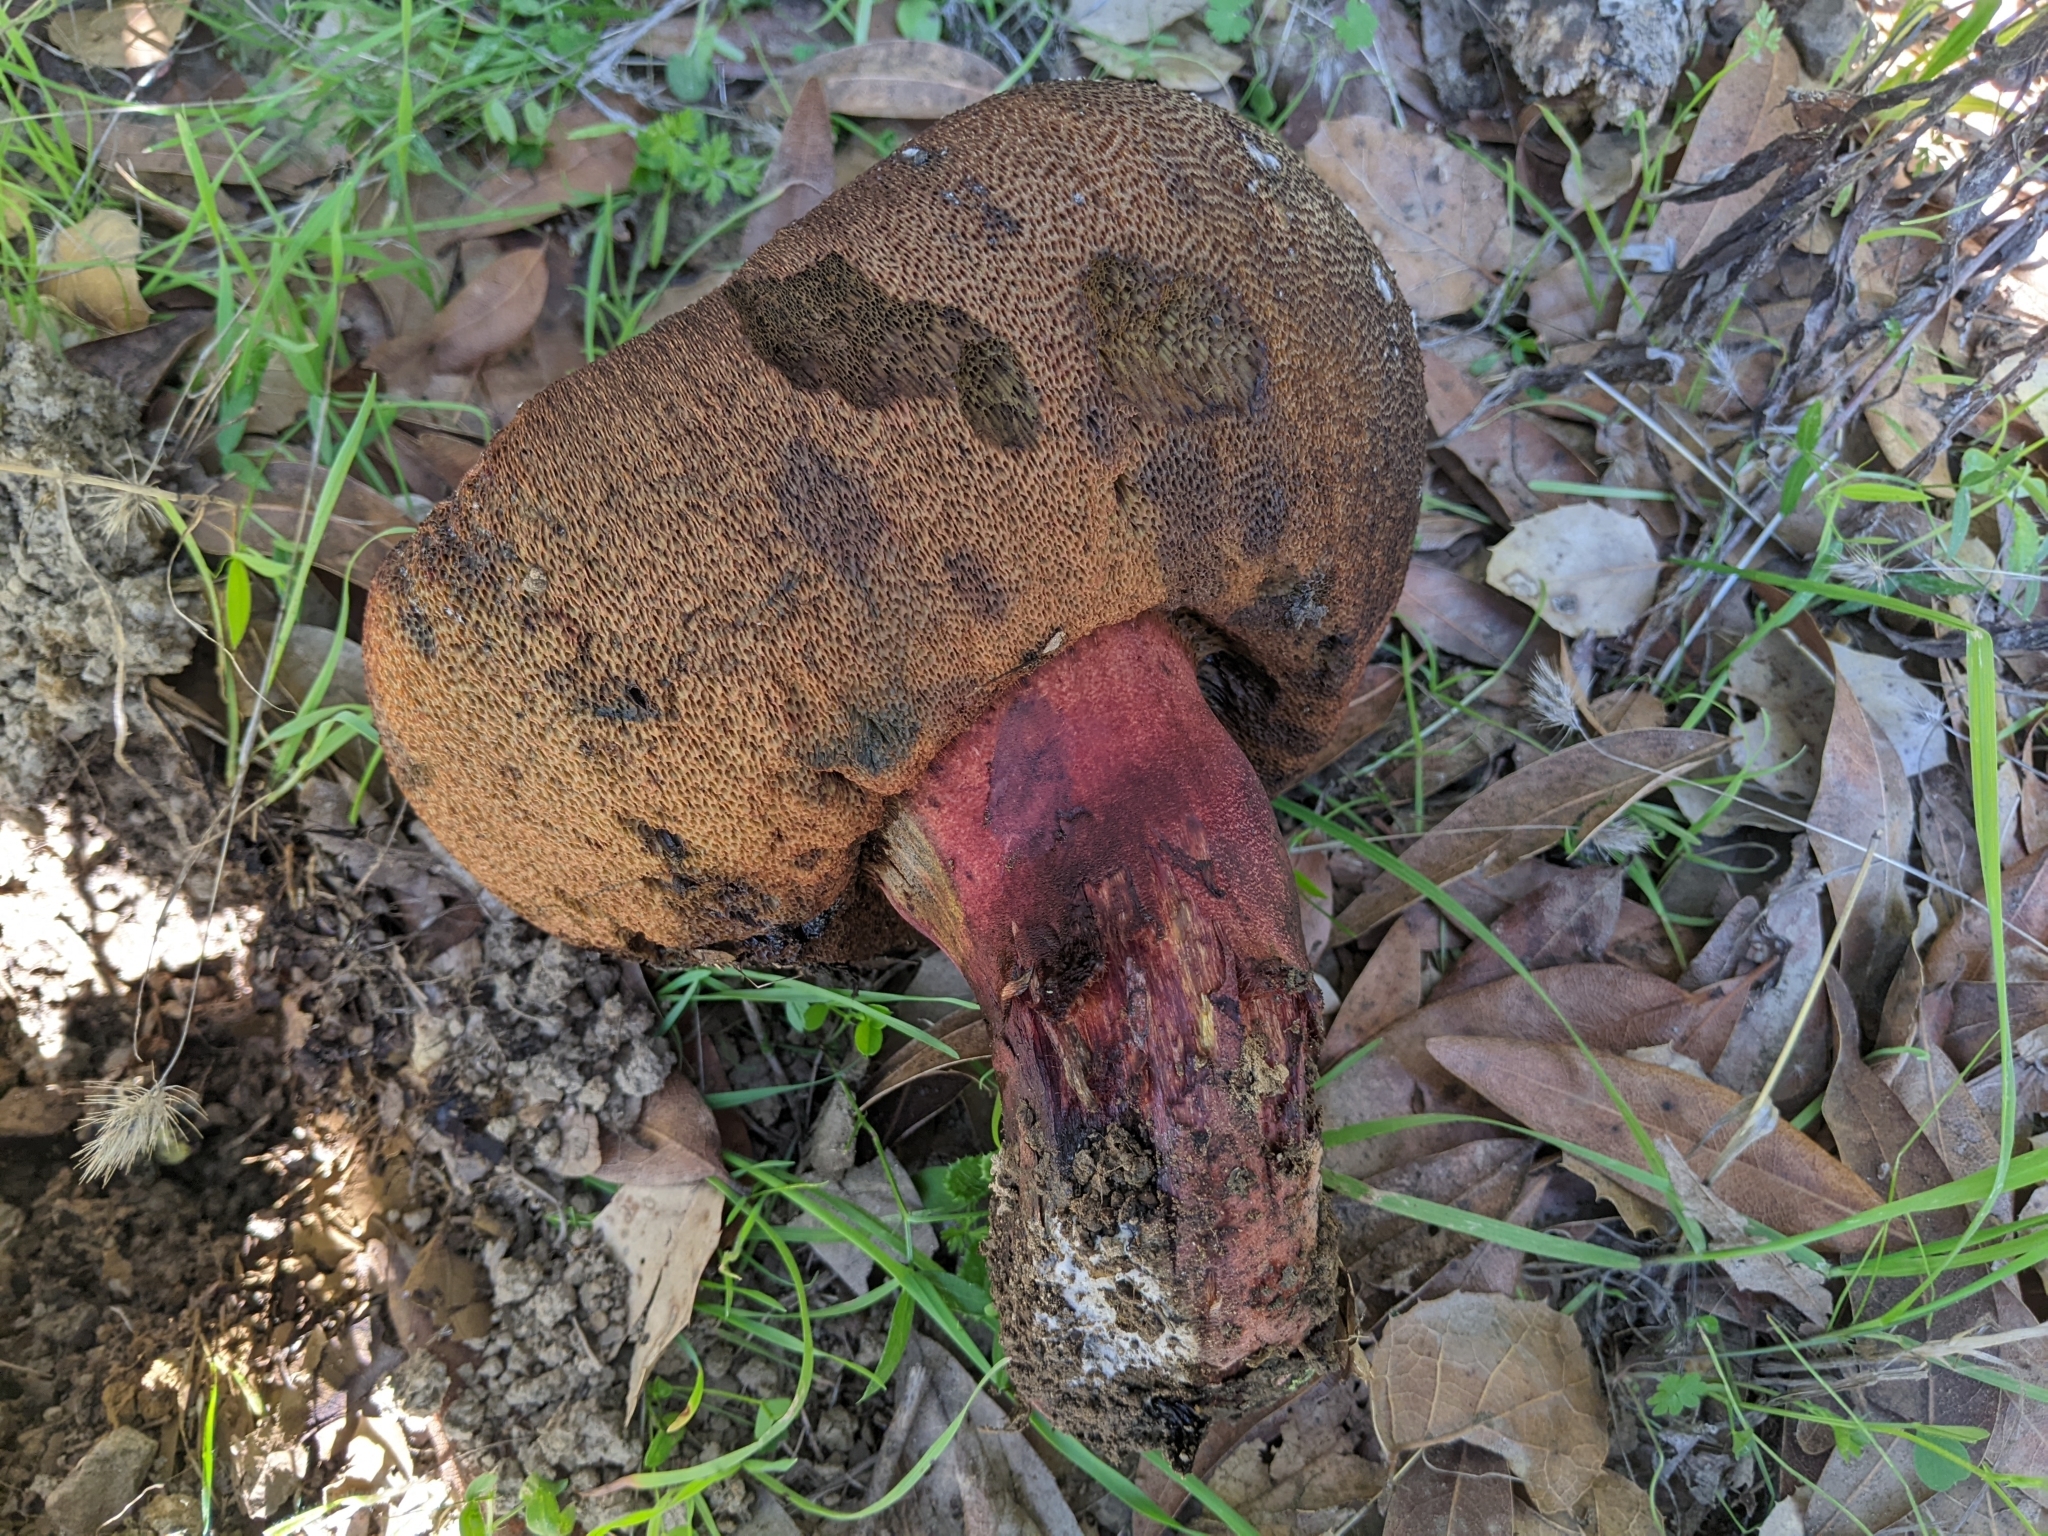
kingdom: Fungi
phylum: Basidiomycota
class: Agaricomycetes
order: Boletales
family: Boletaceae
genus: Suillellus
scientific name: Suillellus amygdalinus
